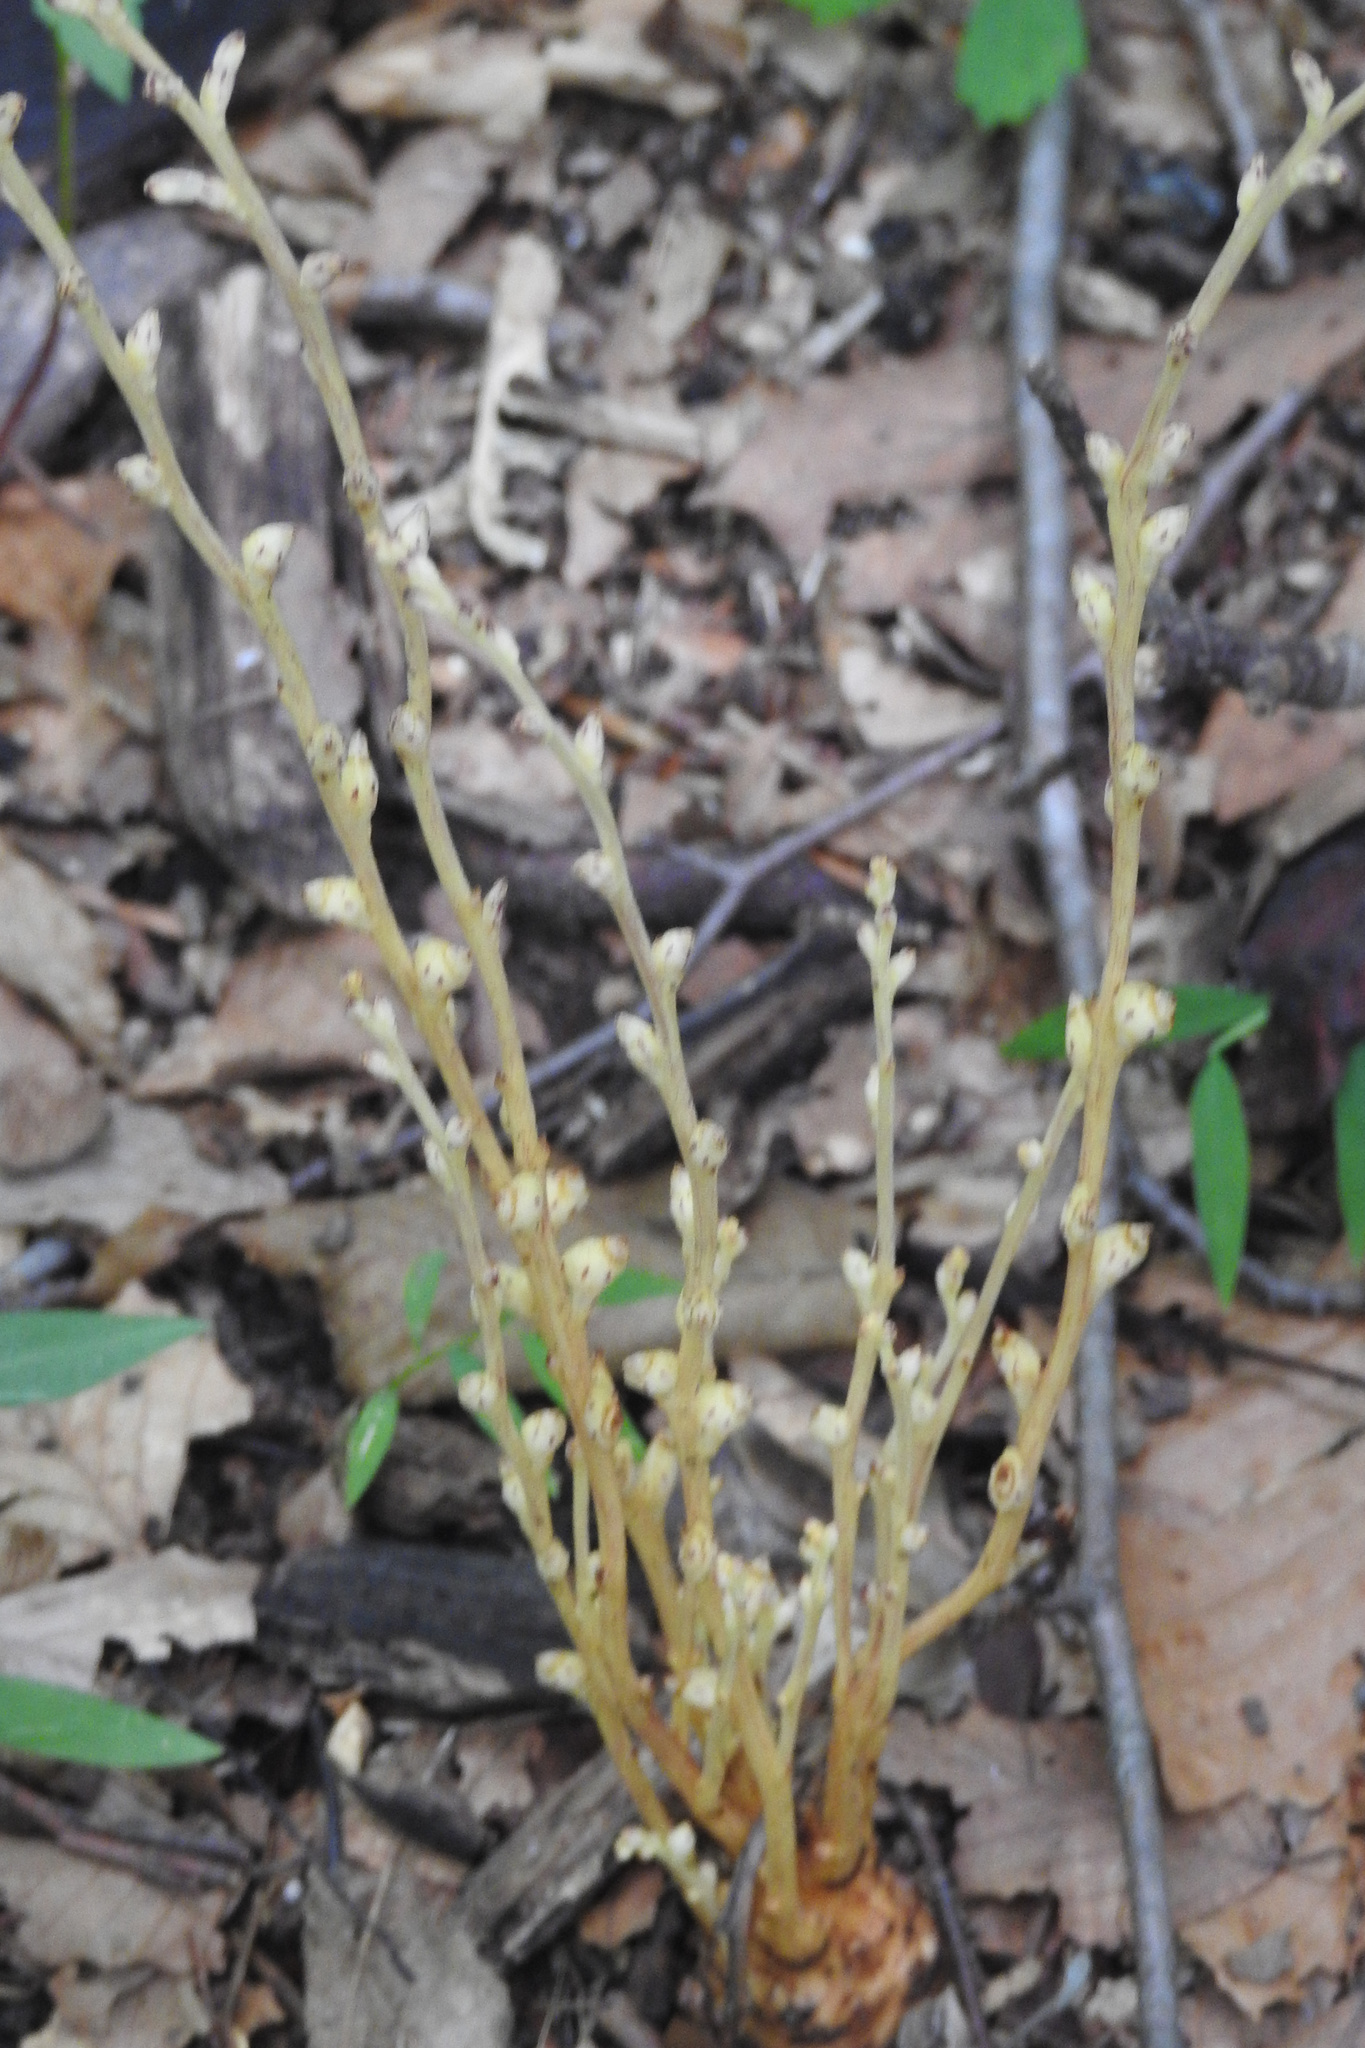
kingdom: Plantae
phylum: Tracheophyta
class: Magnoliopsida
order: Lamiales
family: Orobanchaceae
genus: Epifagus
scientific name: Epifagus virginiana
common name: Beechdrops
